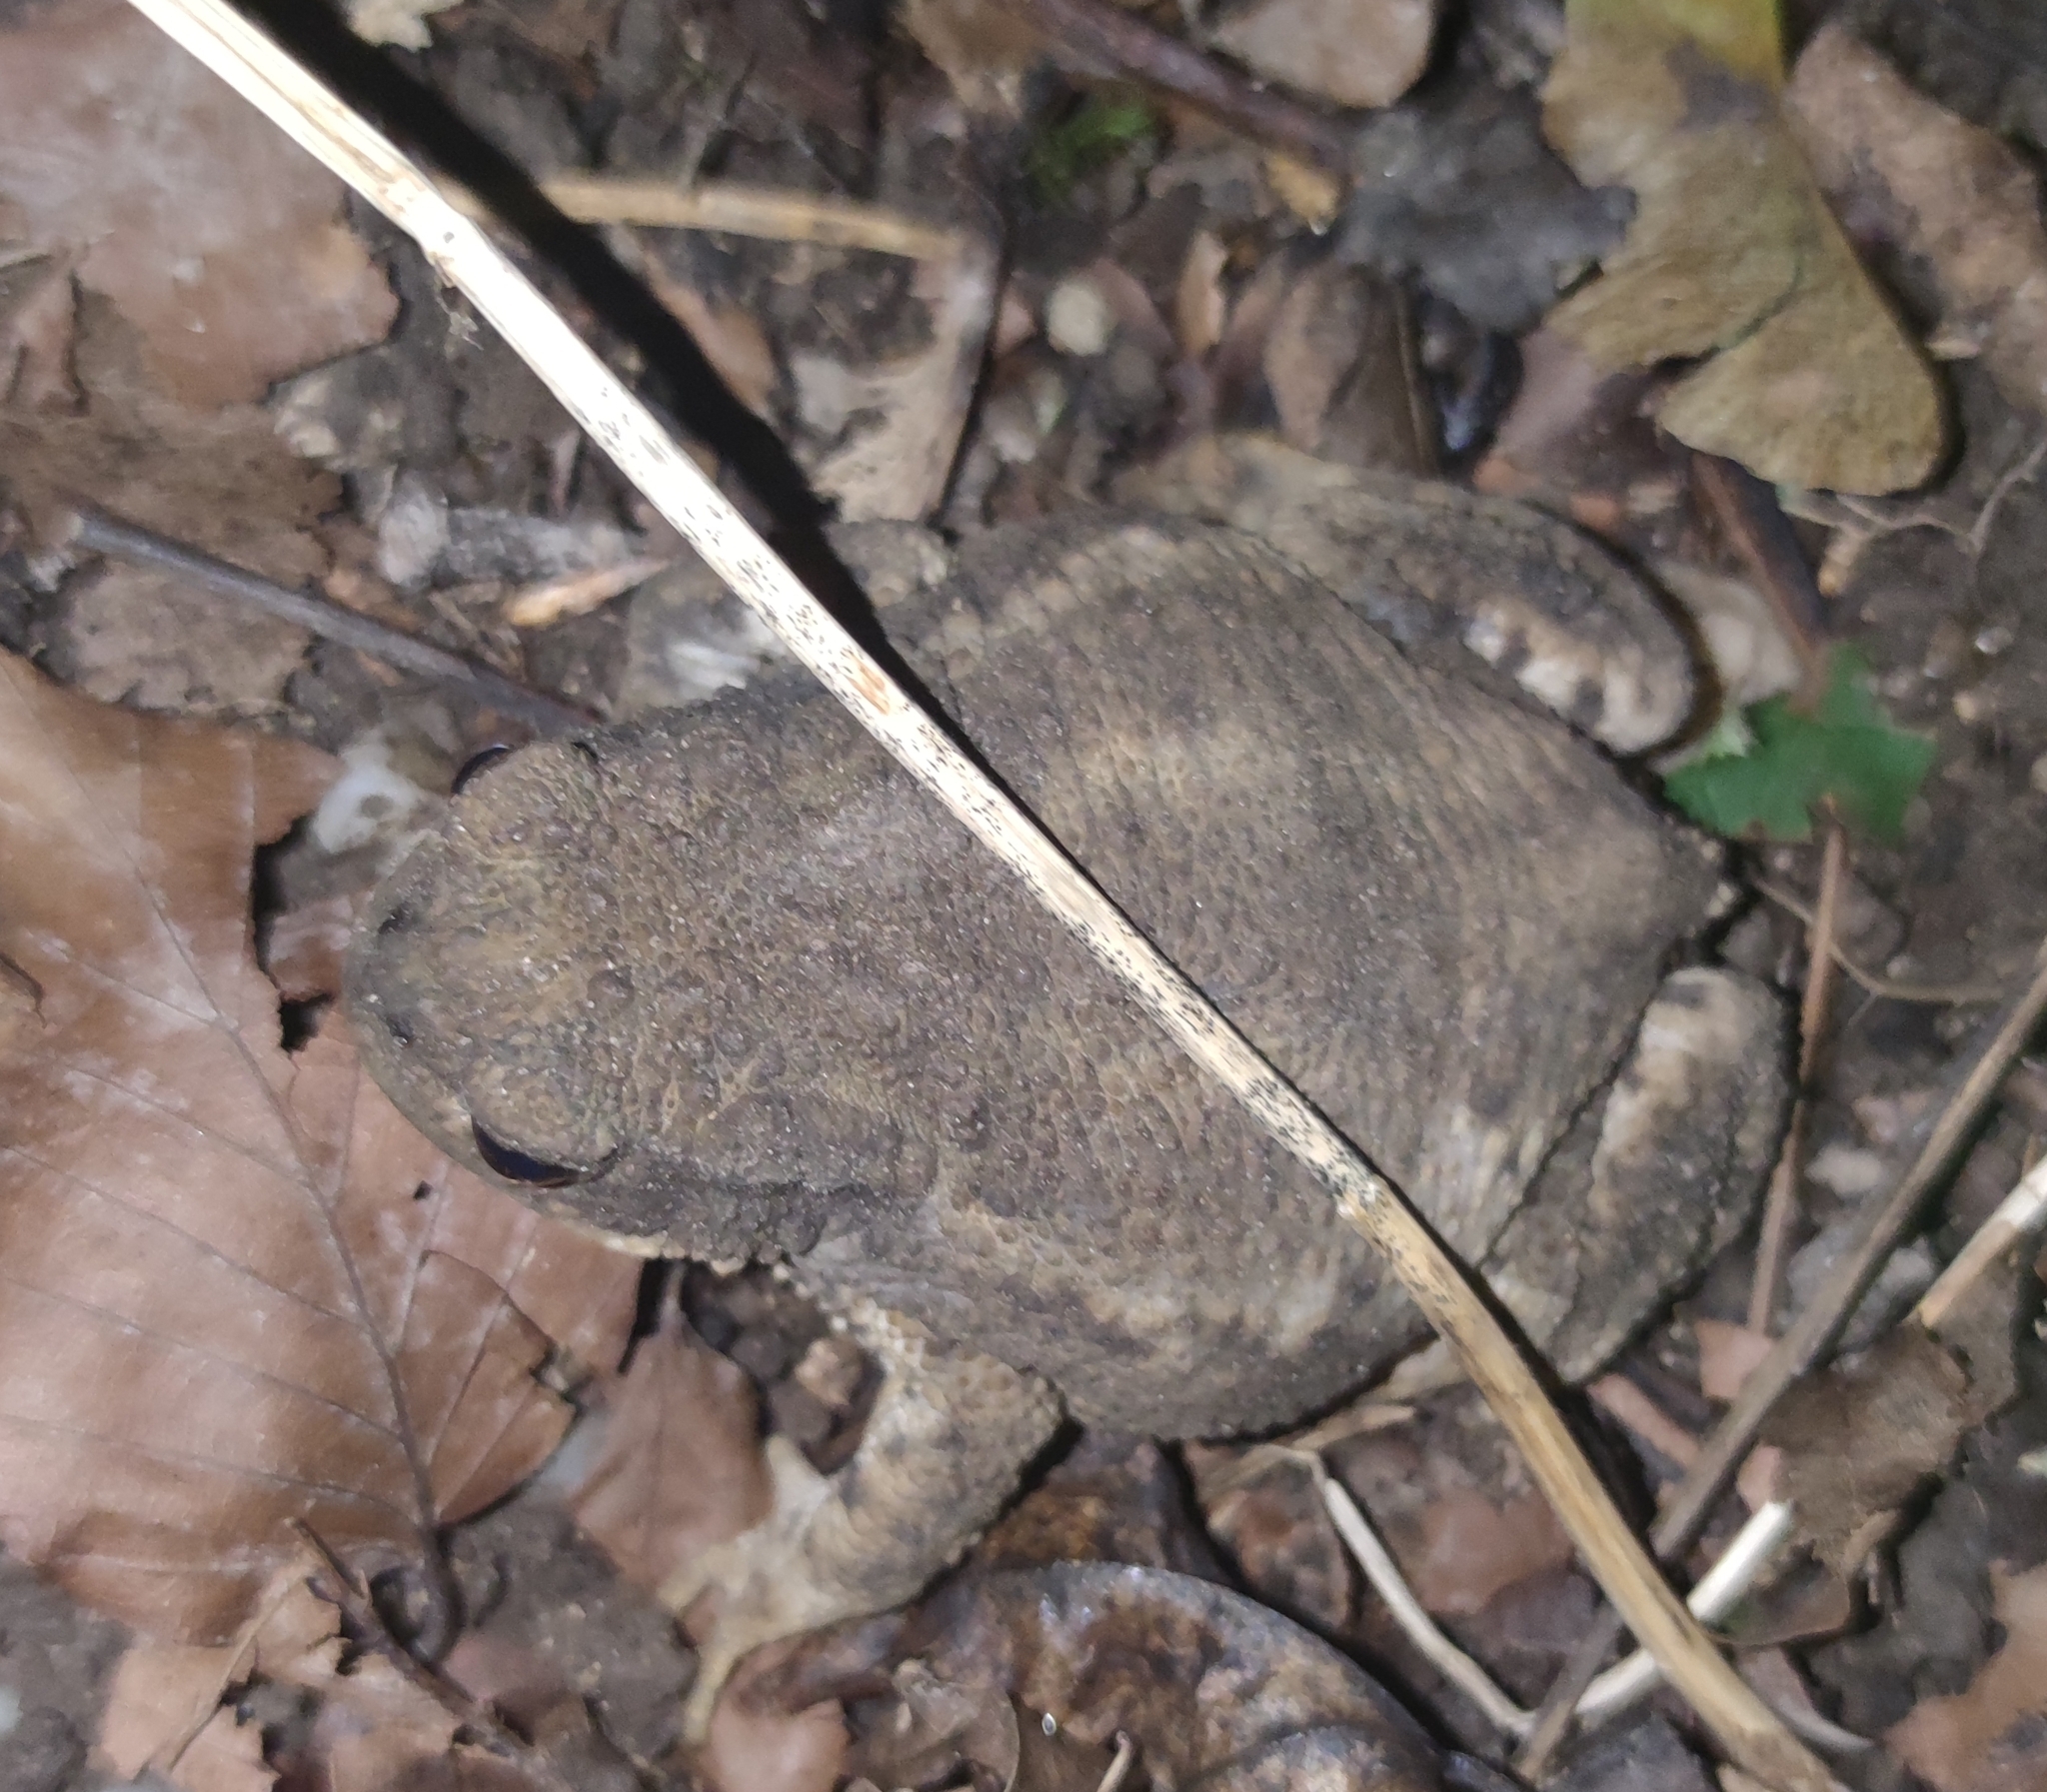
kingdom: Animalia
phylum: Chordata
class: Amphibia
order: Anura
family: Bufonidae
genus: Bufo
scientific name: Bufo bufo
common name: Common toad
